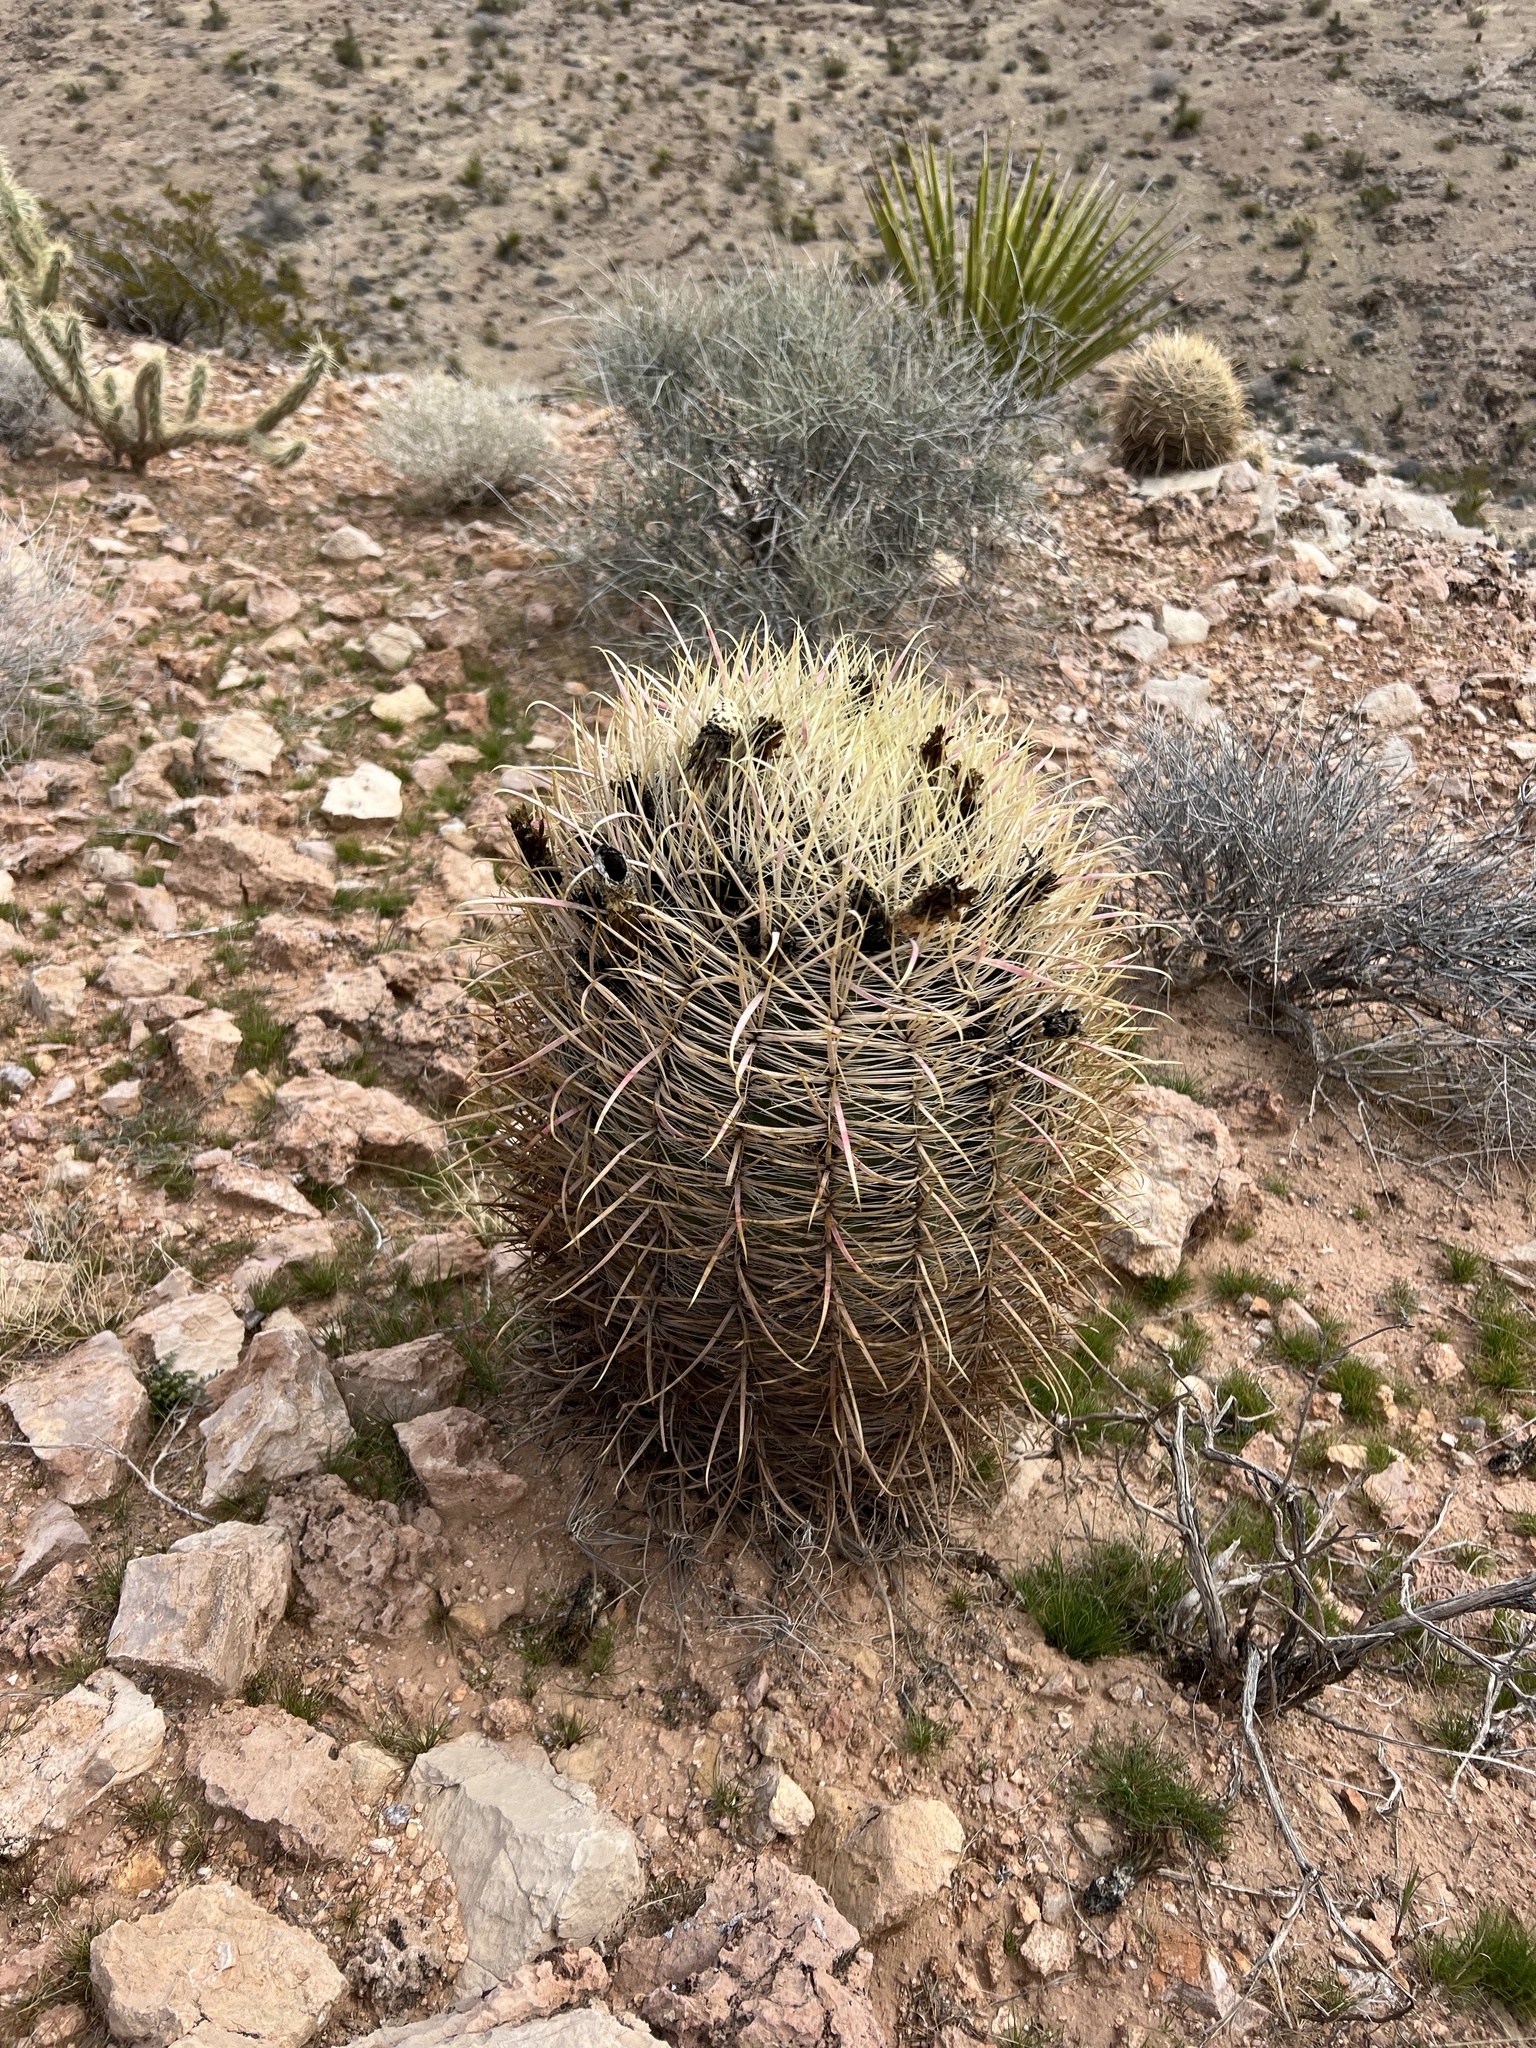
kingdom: Plantae
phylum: Tracheophyta
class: Magnoliopsida
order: Caryophyllales
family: Cactaceae
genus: Ferocactus
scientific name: Ferocactus cylindraceus
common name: California barrel cactus
